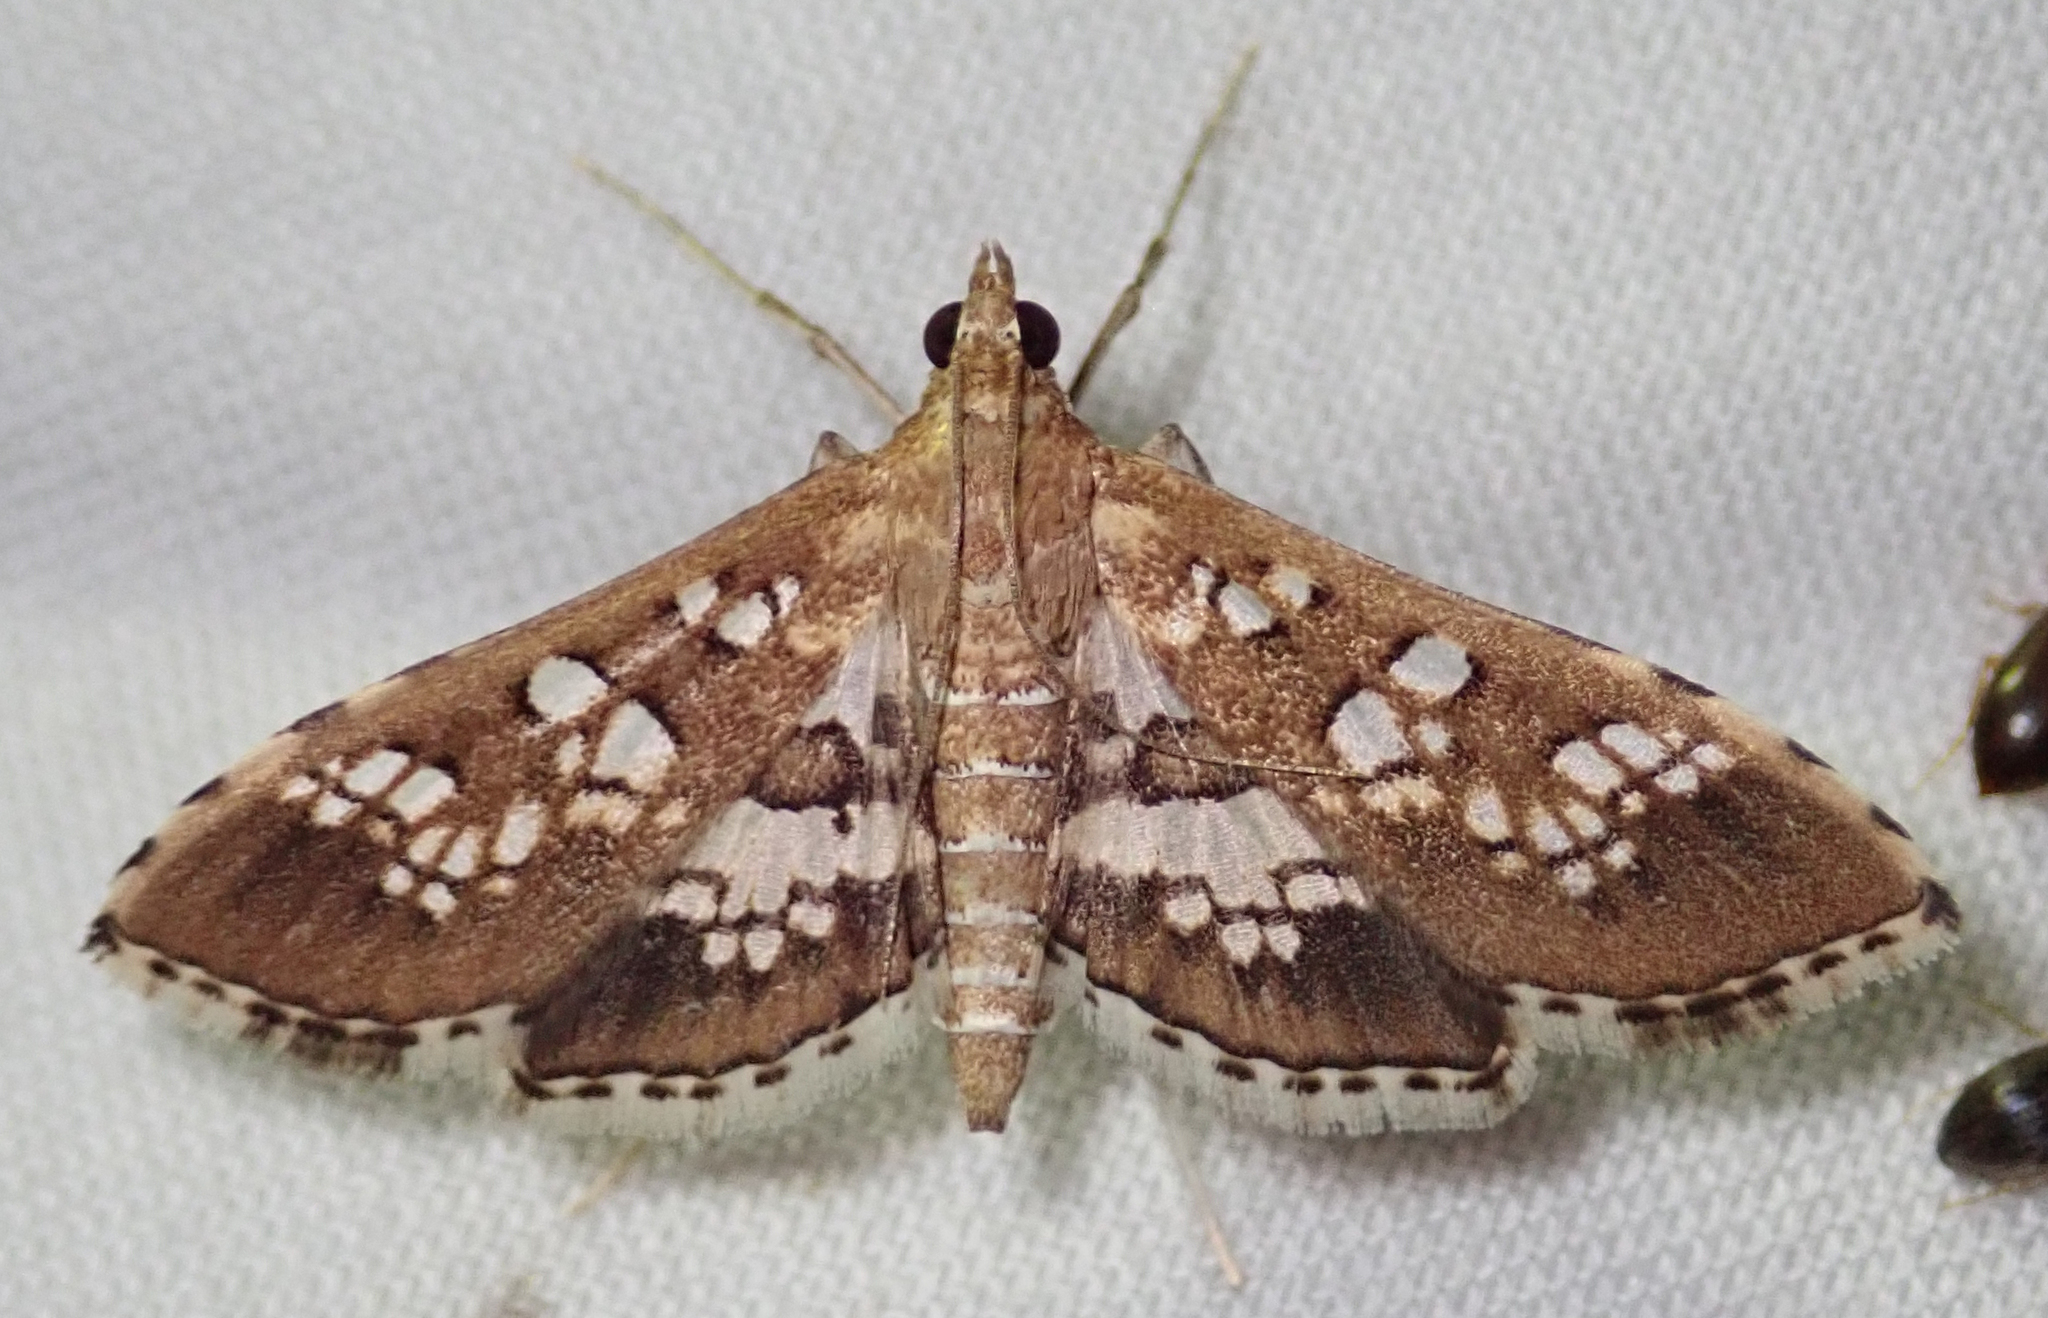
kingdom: Animalia
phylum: Arthropoda
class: Insecta
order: Lepidoptera
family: Crambidae
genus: Sameodes
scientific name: Sameodes cancellalis
